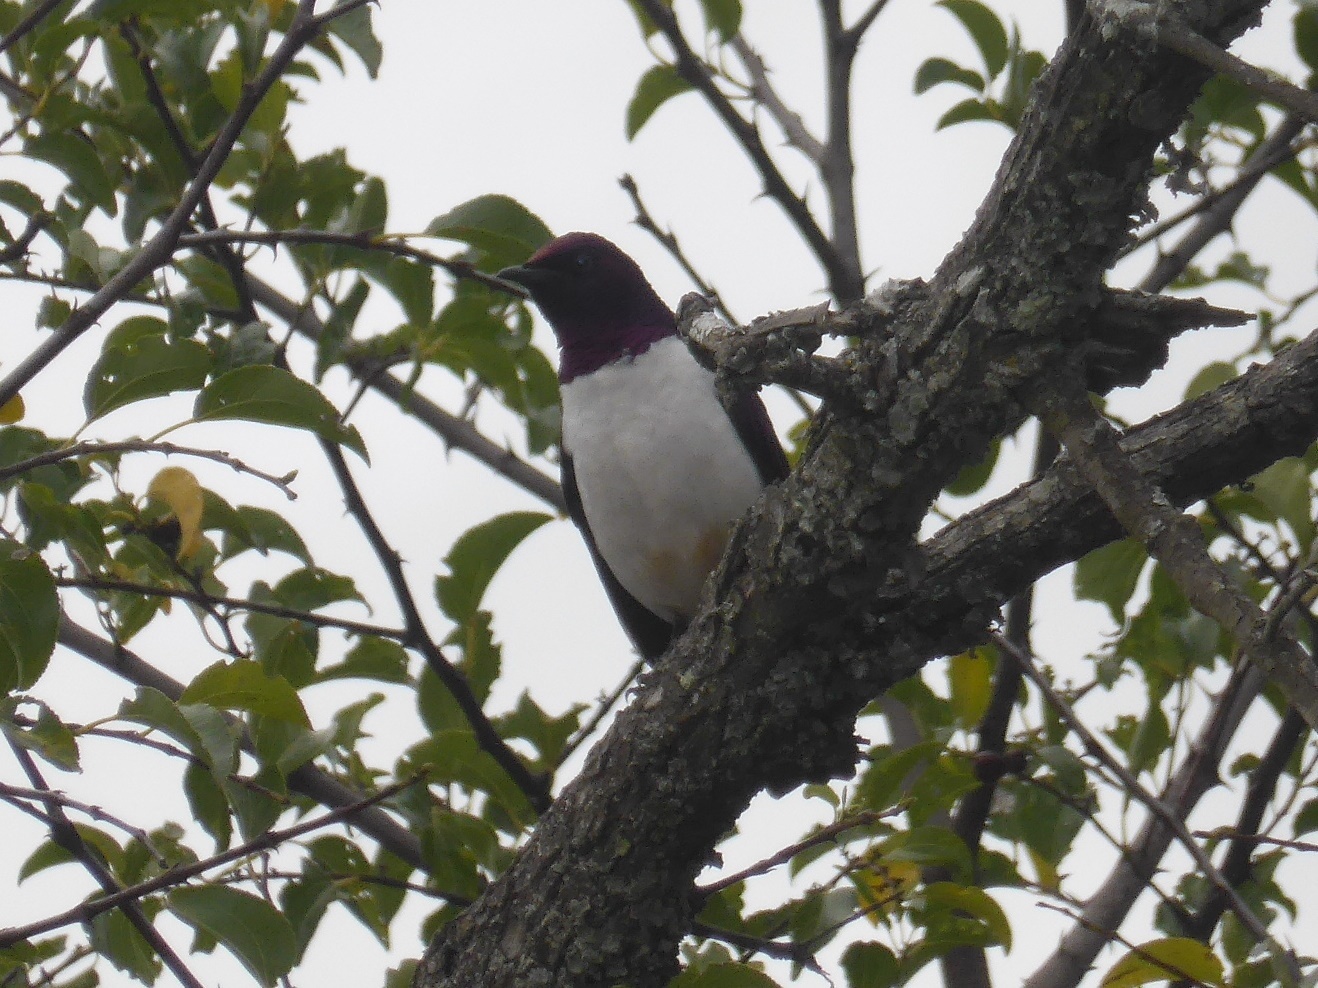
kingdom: Animalia
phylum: Chordata
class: Aves
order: Passeriformes
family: Sturnidae
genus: Cinnyricinclus
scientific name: Cinnyricinclus leucogaster
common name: Violet-backed starling
